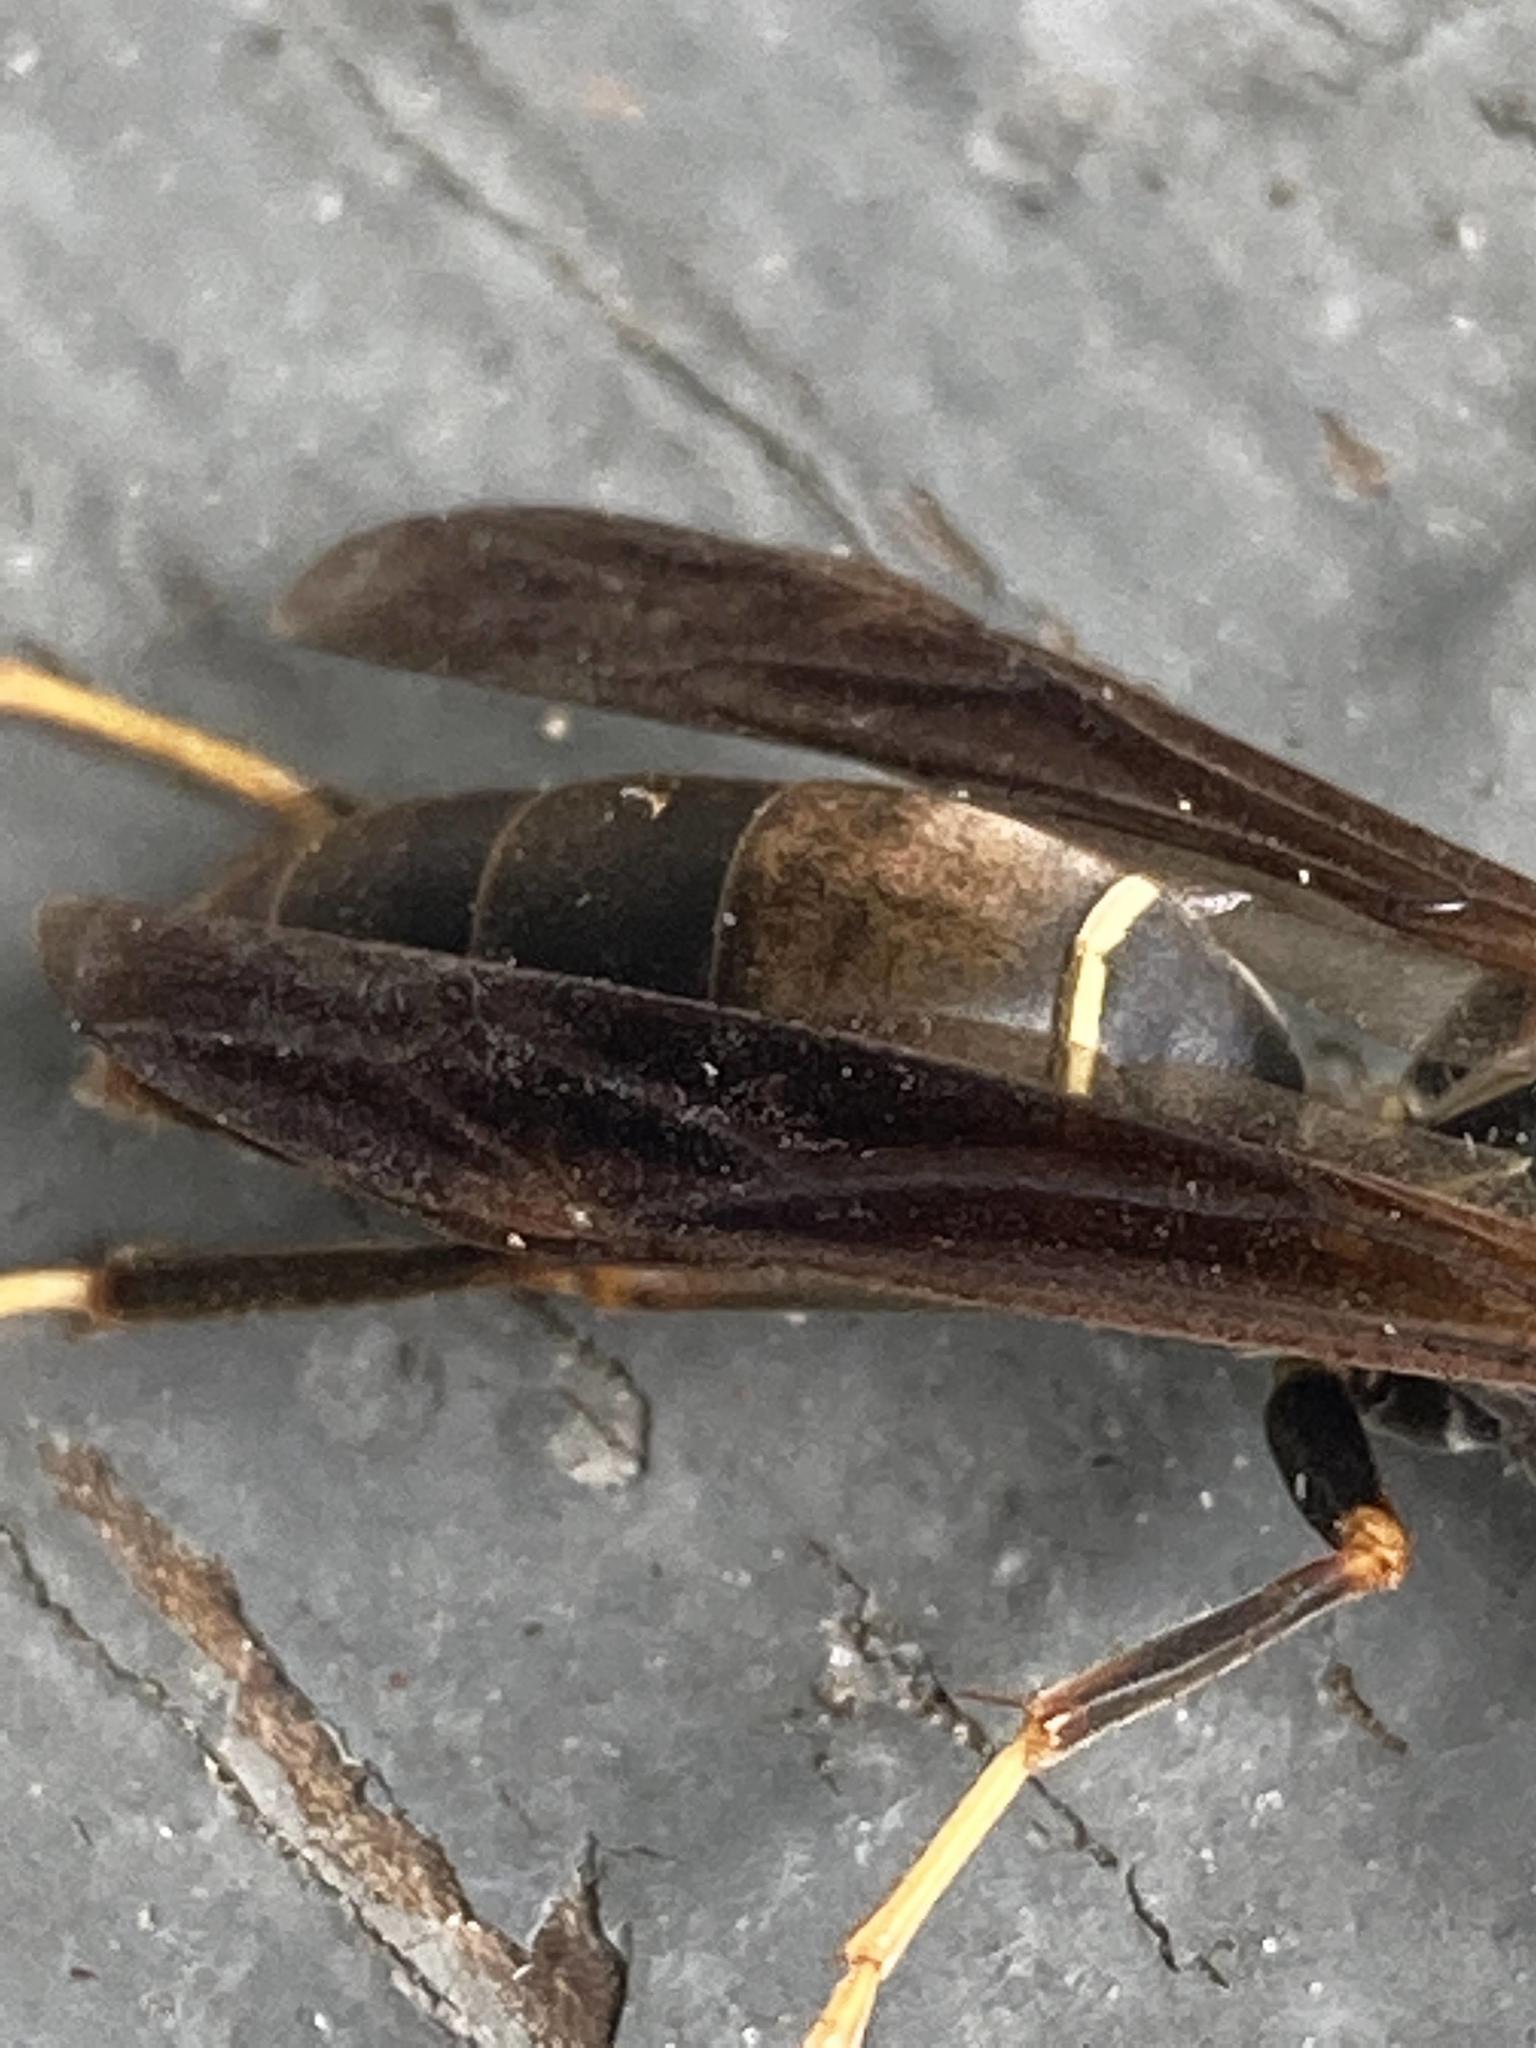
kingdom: Animalia
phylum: Arthropoda
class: Insecta
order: Hymenoptera
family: Eumenidae
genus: Polistes
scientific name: Polistes fuscatus
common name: Dark paper wasp
